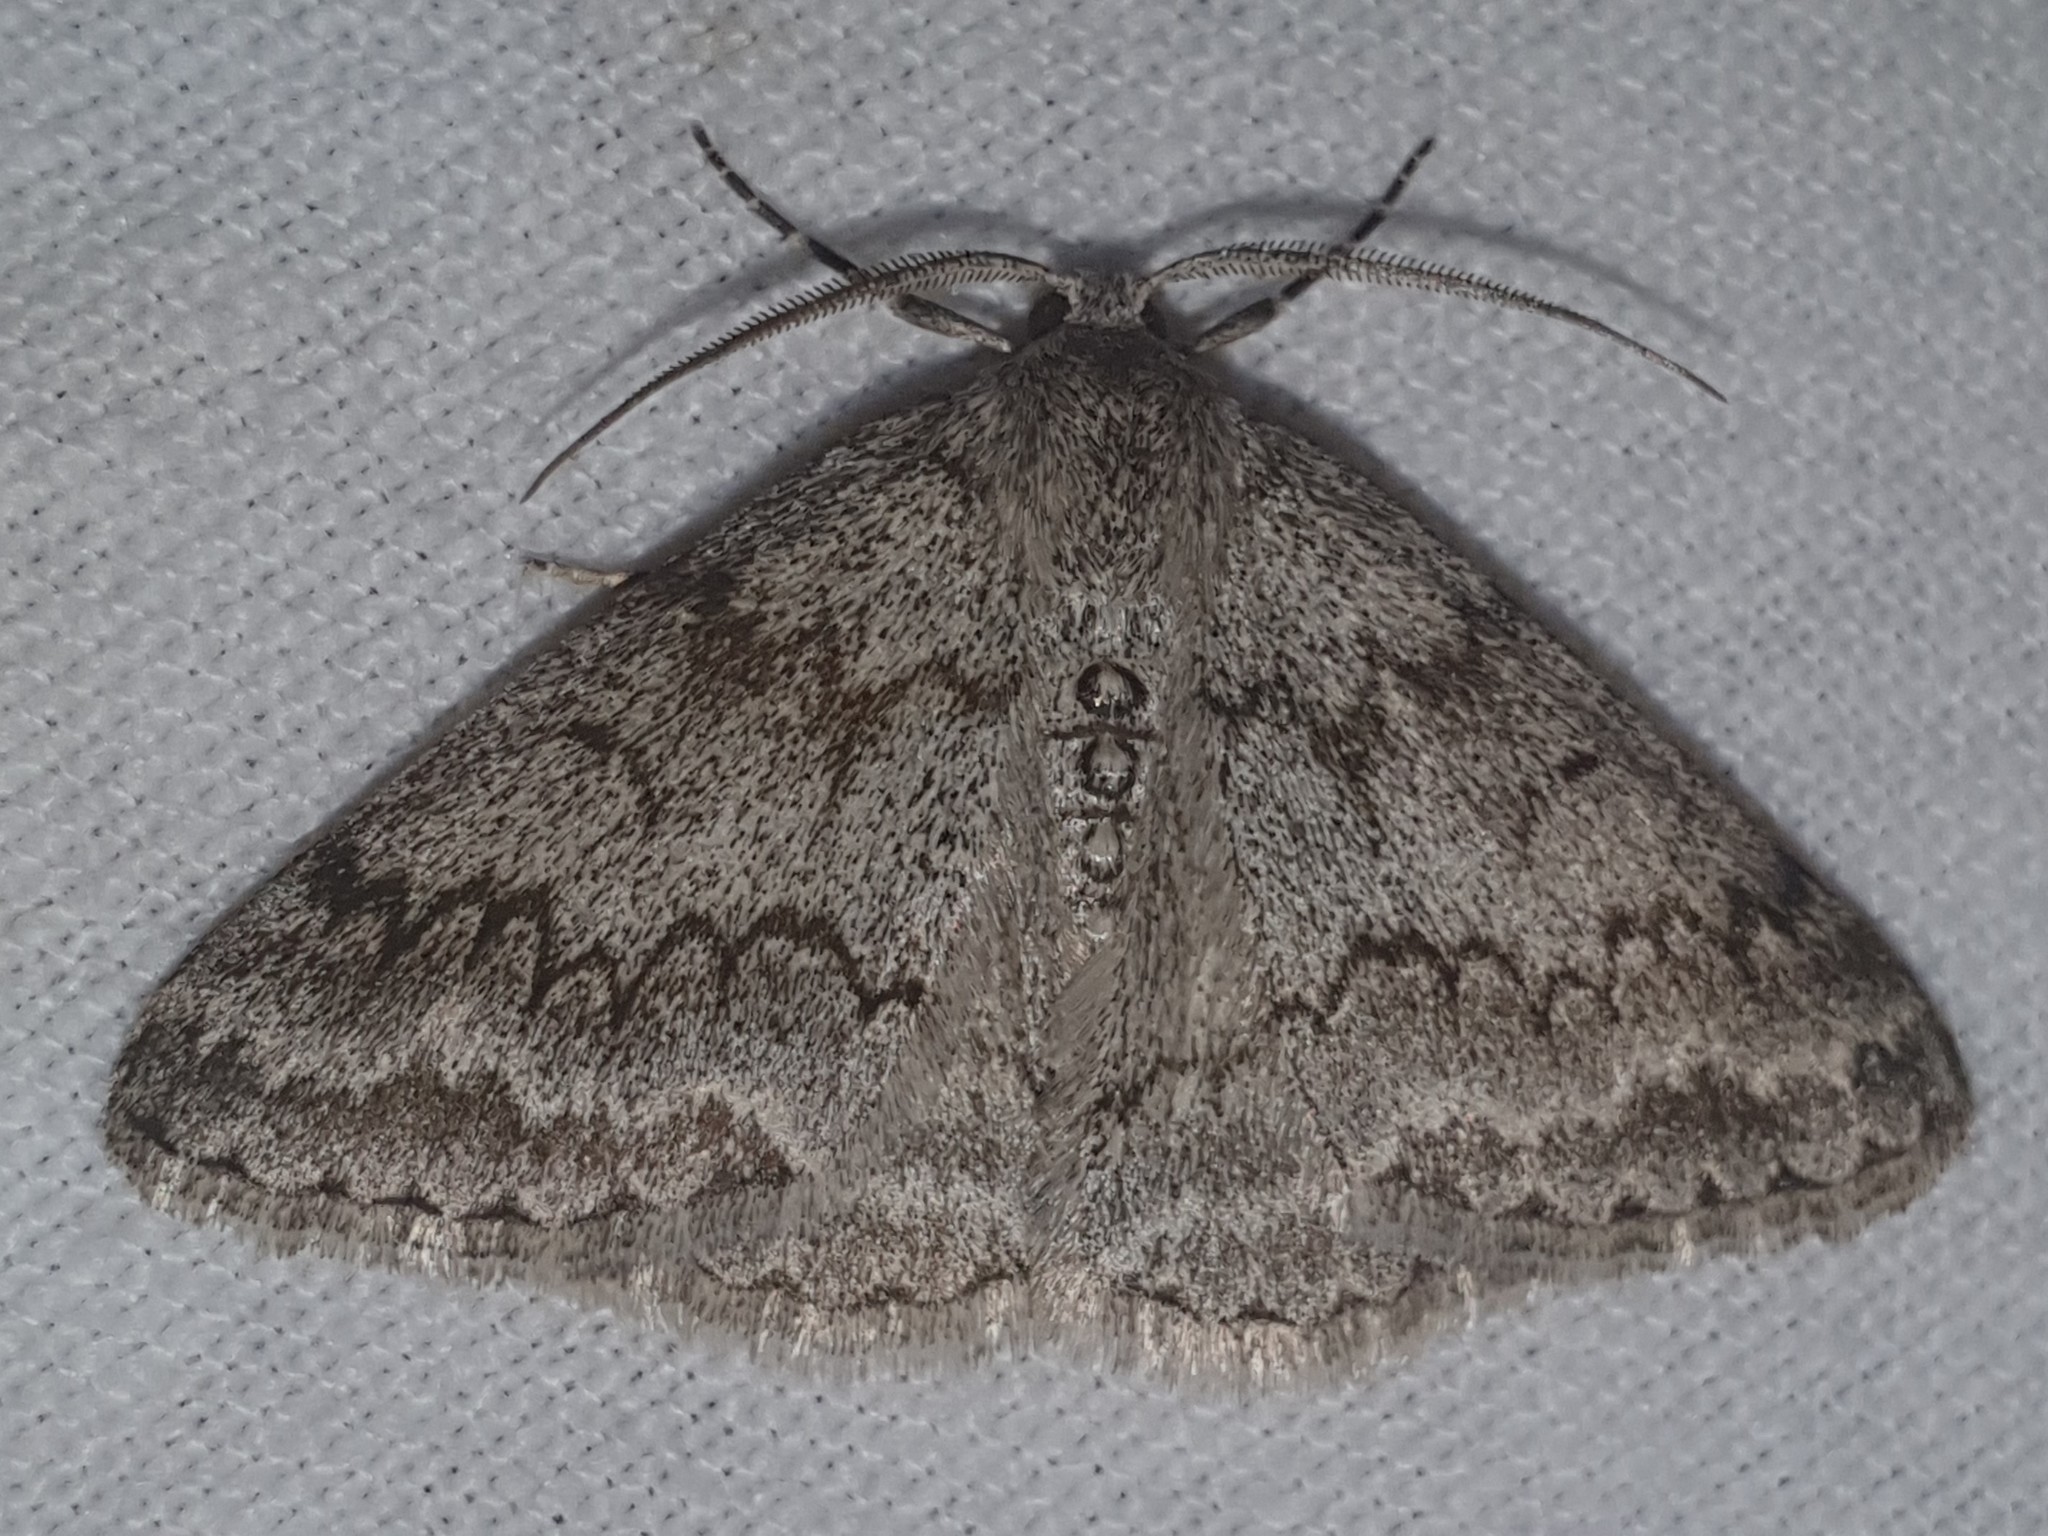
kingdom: Animalia
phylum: Arthropoda
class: Insecta
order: Lepidoptera
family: Geometridae
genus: Pseudoterpna
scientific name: Pseudoterpna coronillaria
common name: Jersey emerald
